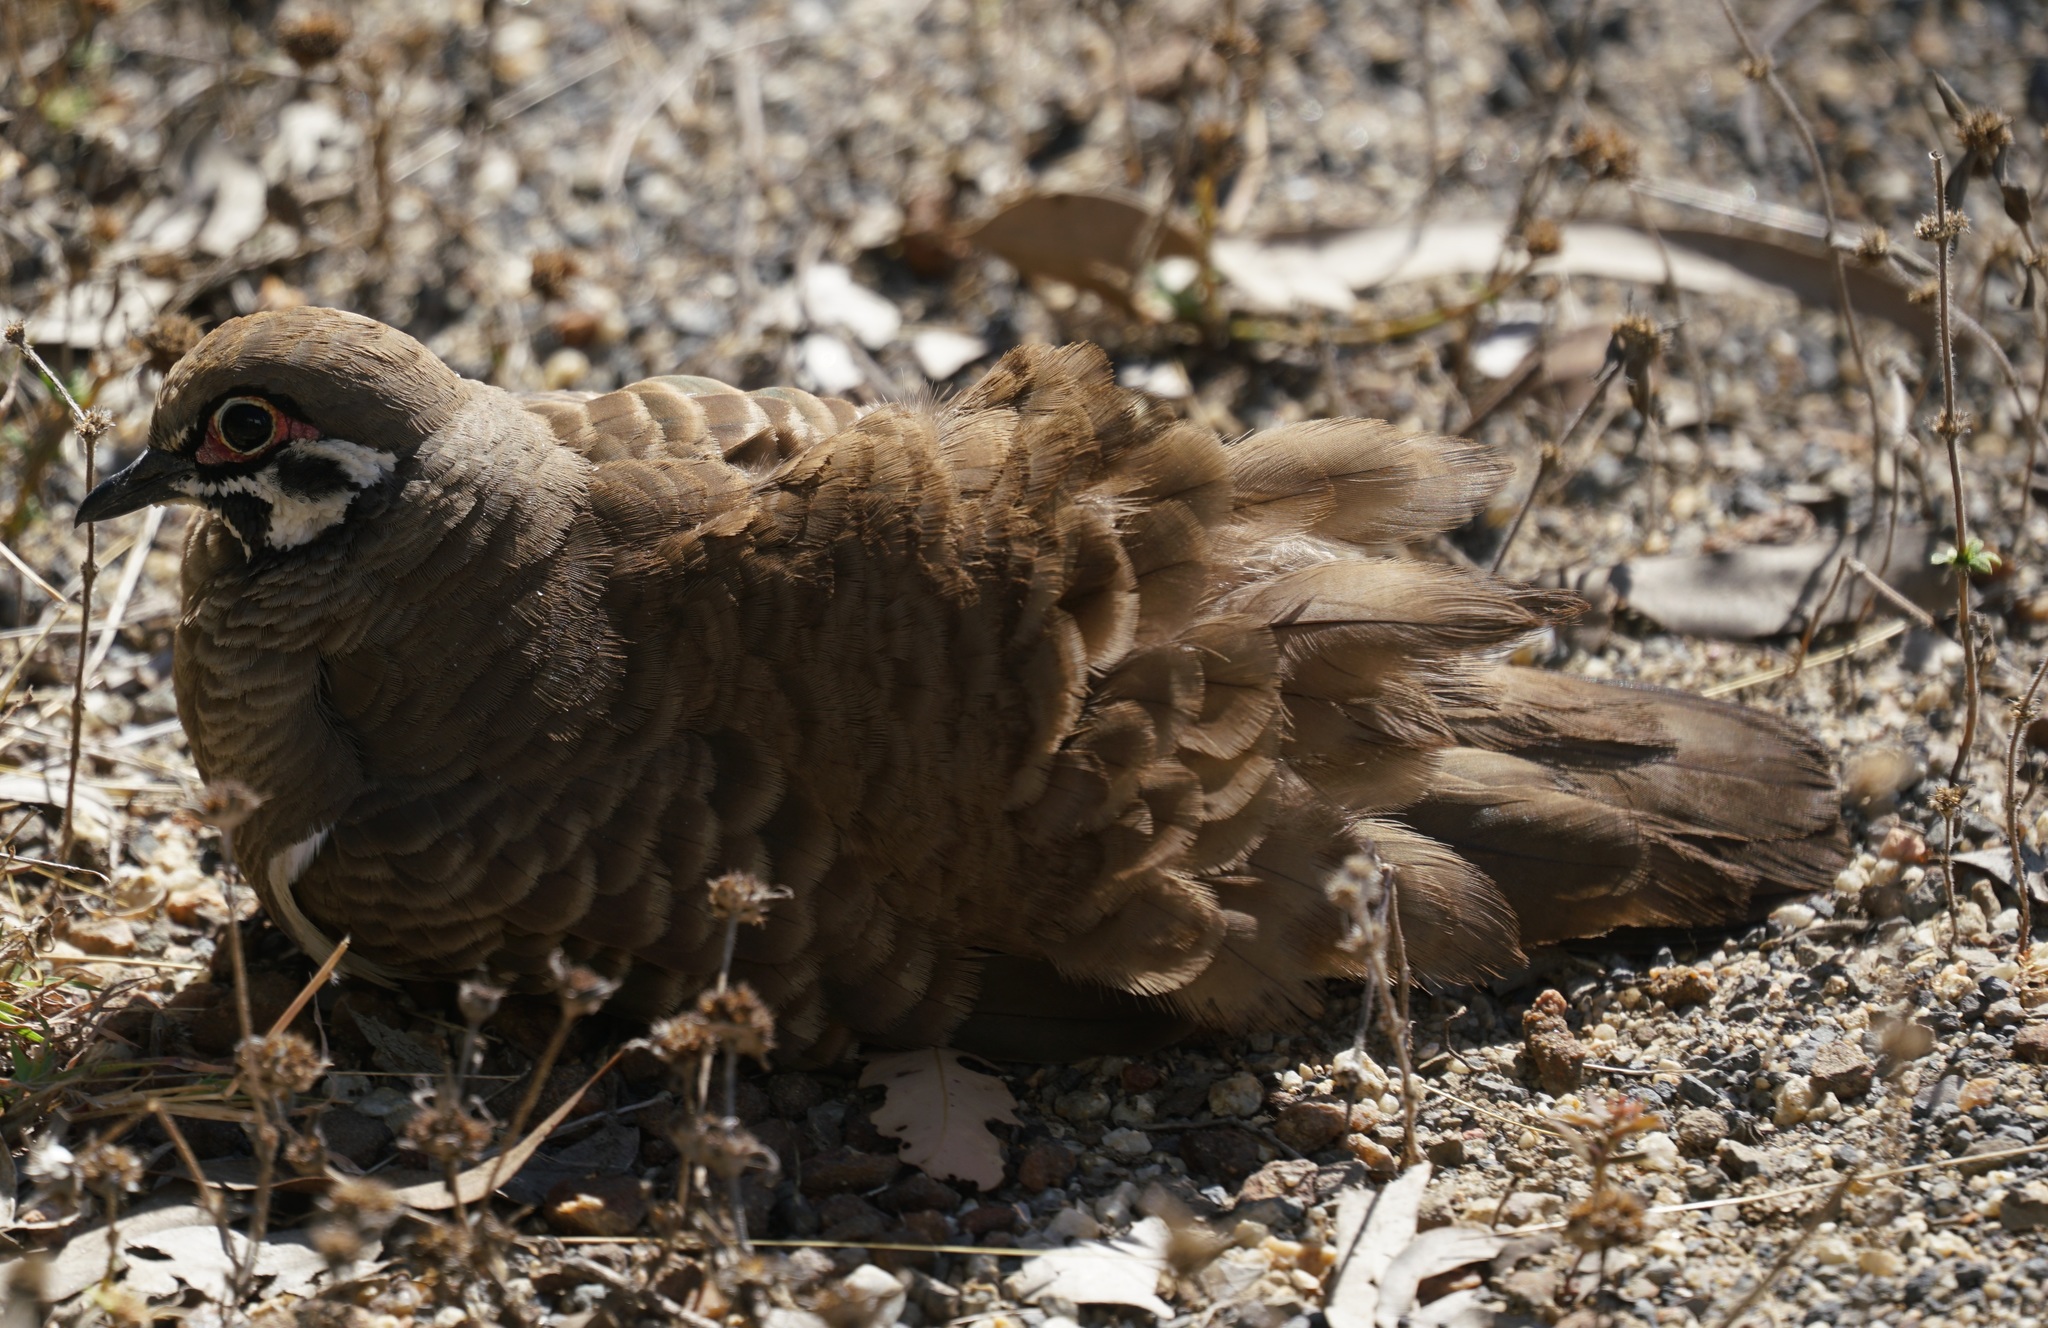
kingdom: Animalia
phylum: Chordata
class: Aves
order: Columbiformes
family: Columbidae
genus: Geophaps
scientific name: Geophaps scripta
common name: Squatter pigeon
